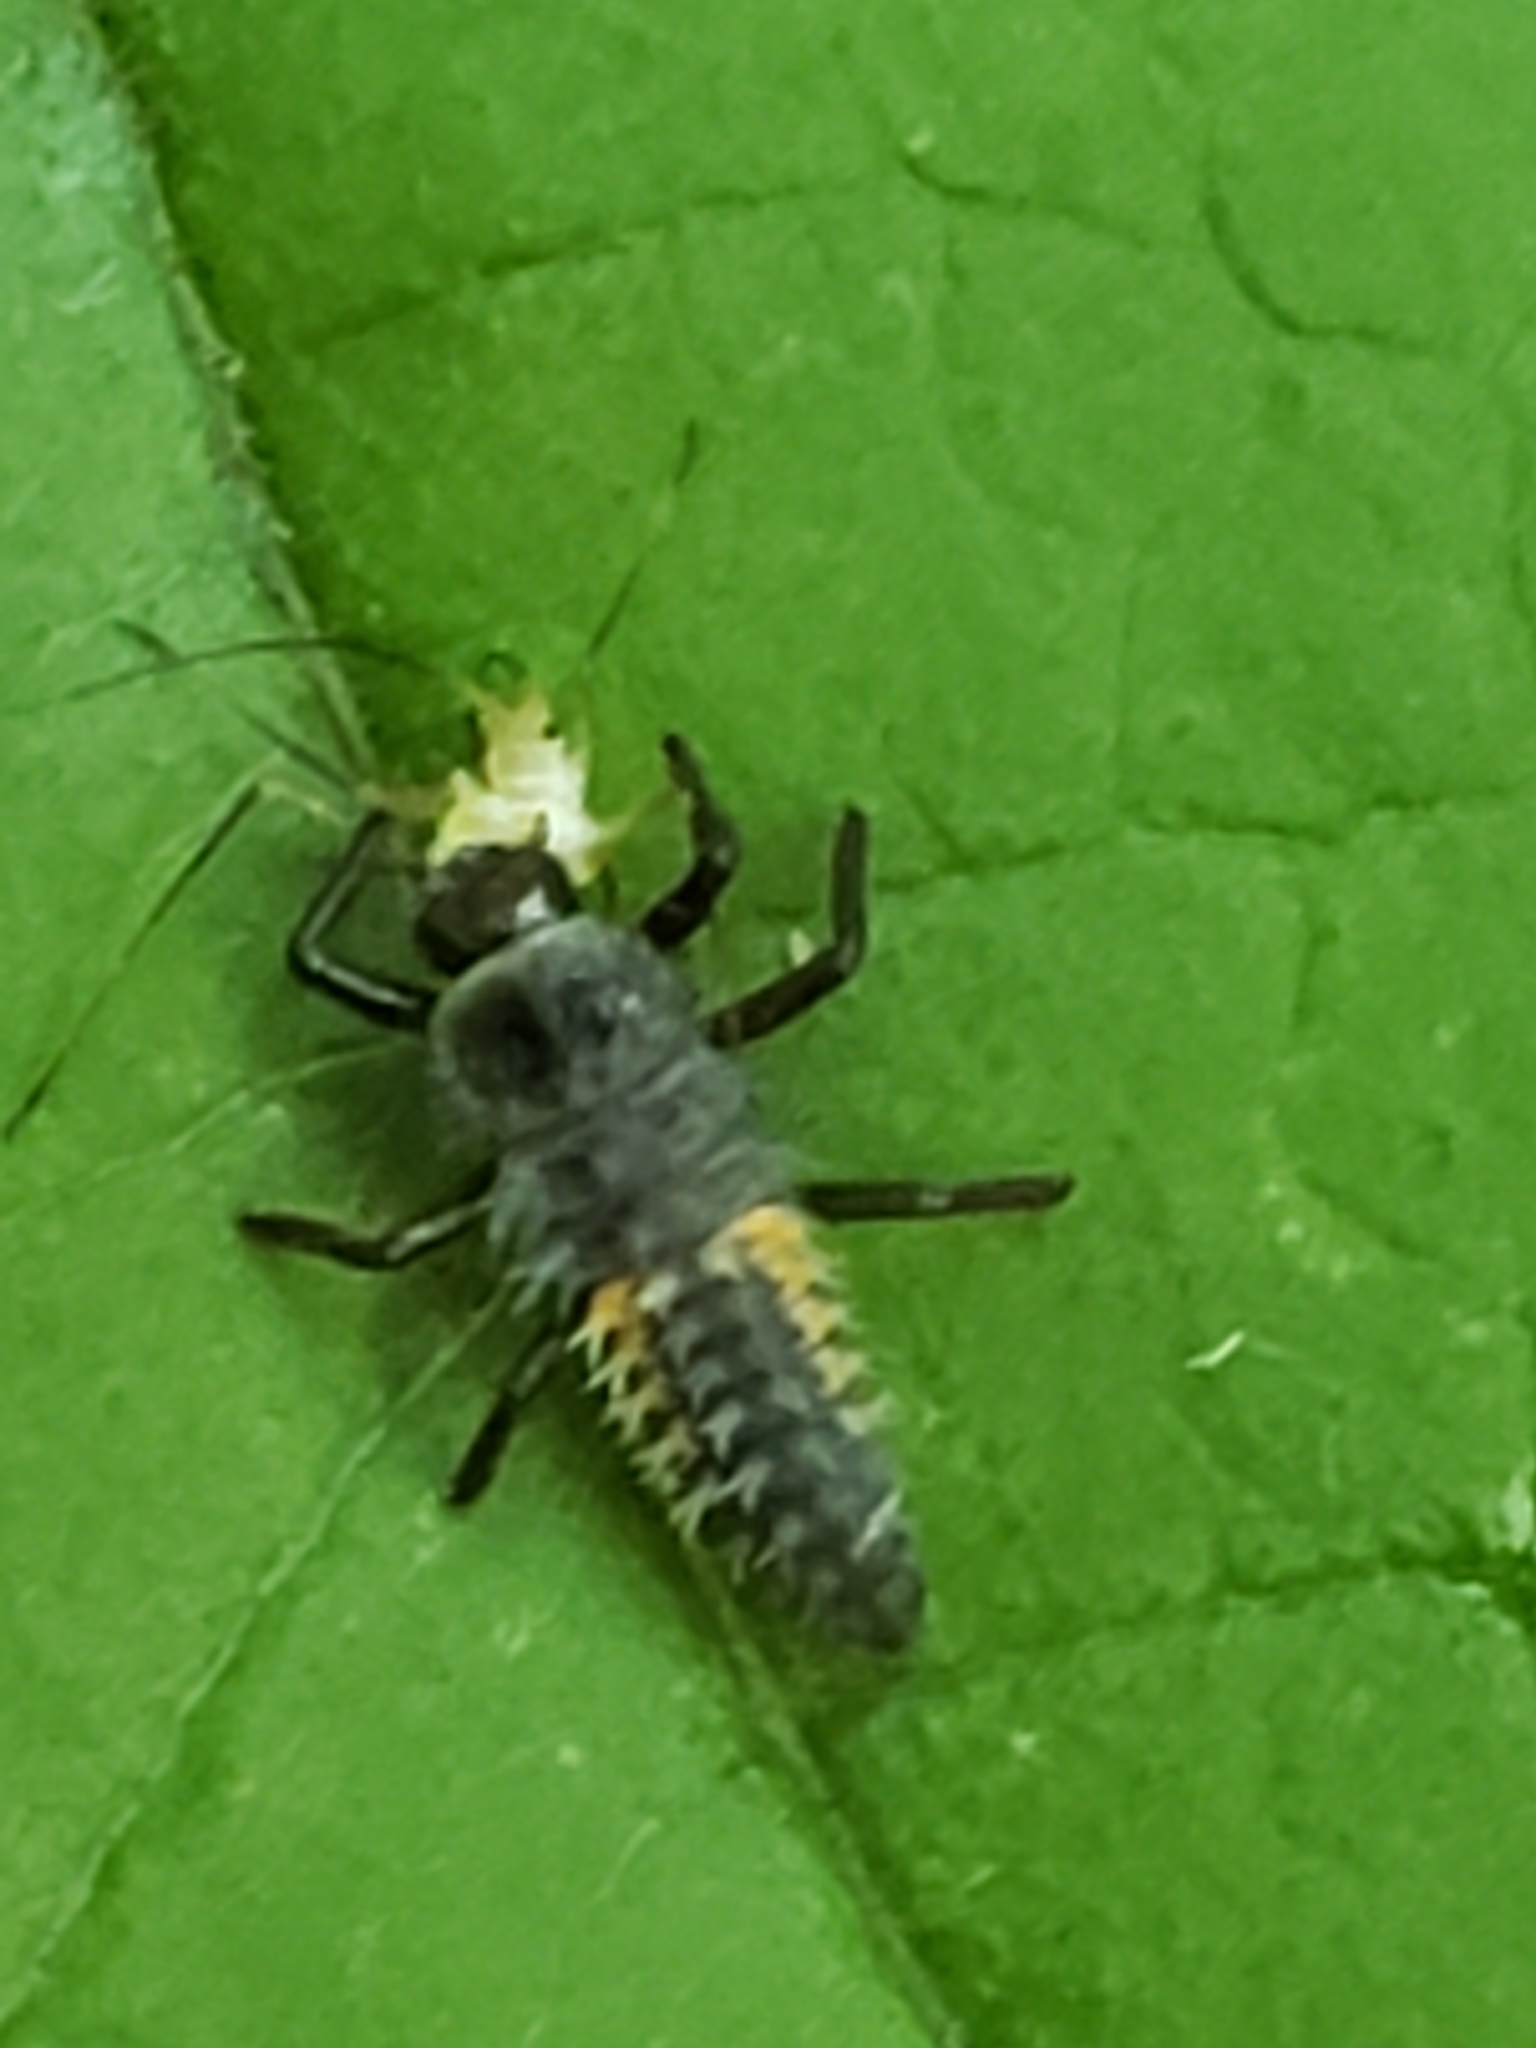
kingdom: Animalia
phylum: Arthropoda
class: Insecta
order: Coleoptera
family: Coccinellidae
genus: Harmonia
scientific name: Harmonia axyridis
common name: Harlequin ladybird
